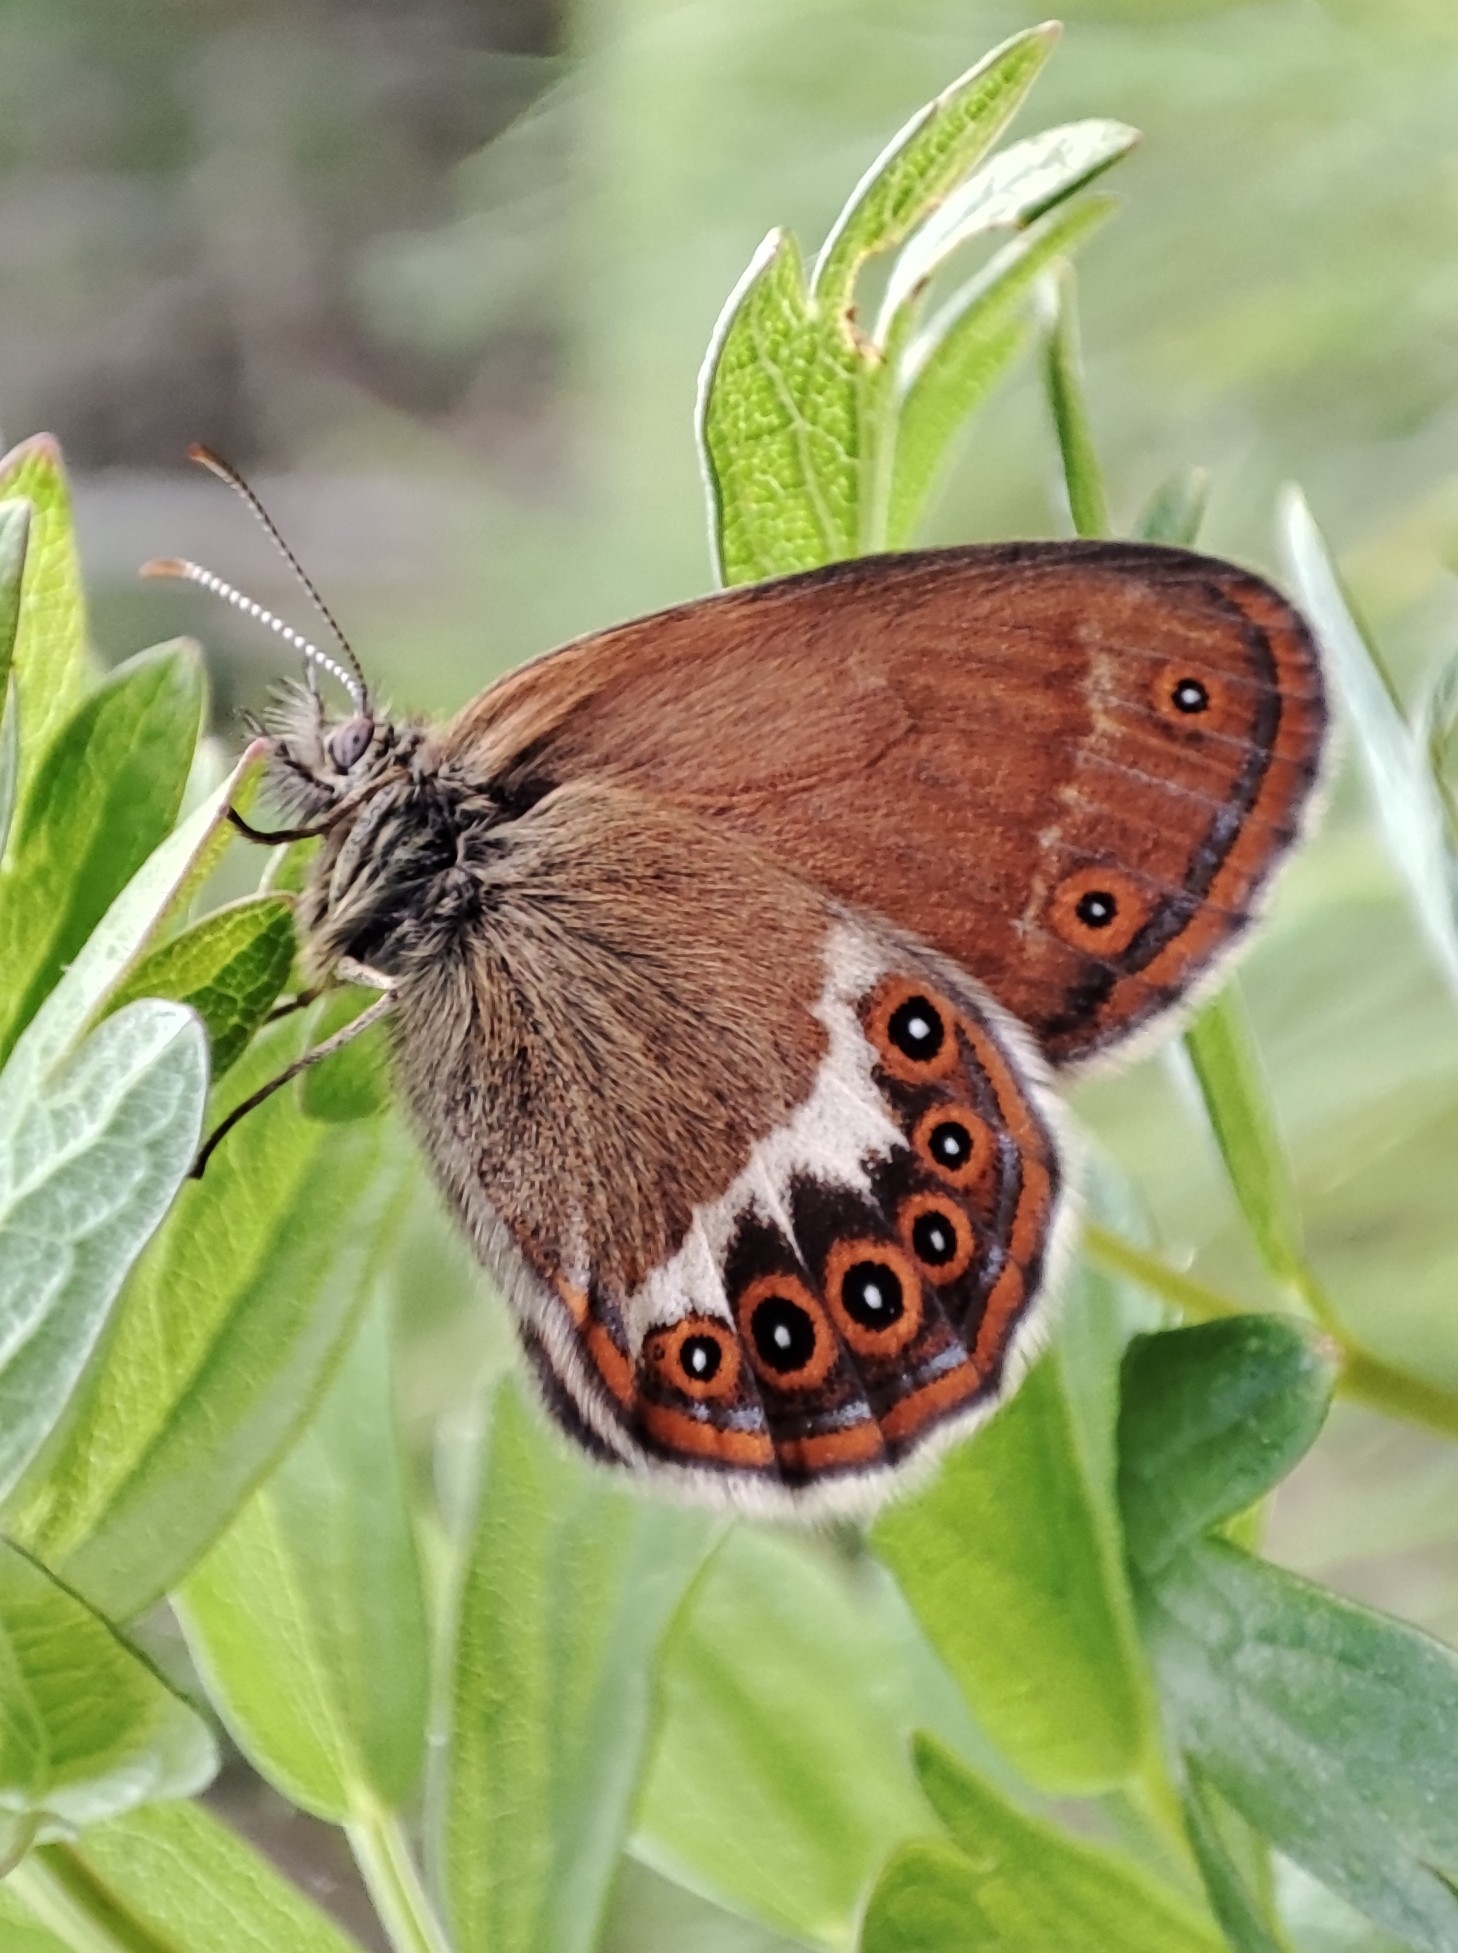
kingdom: Animalia
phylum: Arthropoda
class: Insecta
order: Lepidoptera
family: Nymphalidae
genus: Coenonympha
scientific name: Coenonympha hero
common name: Scarce heath
